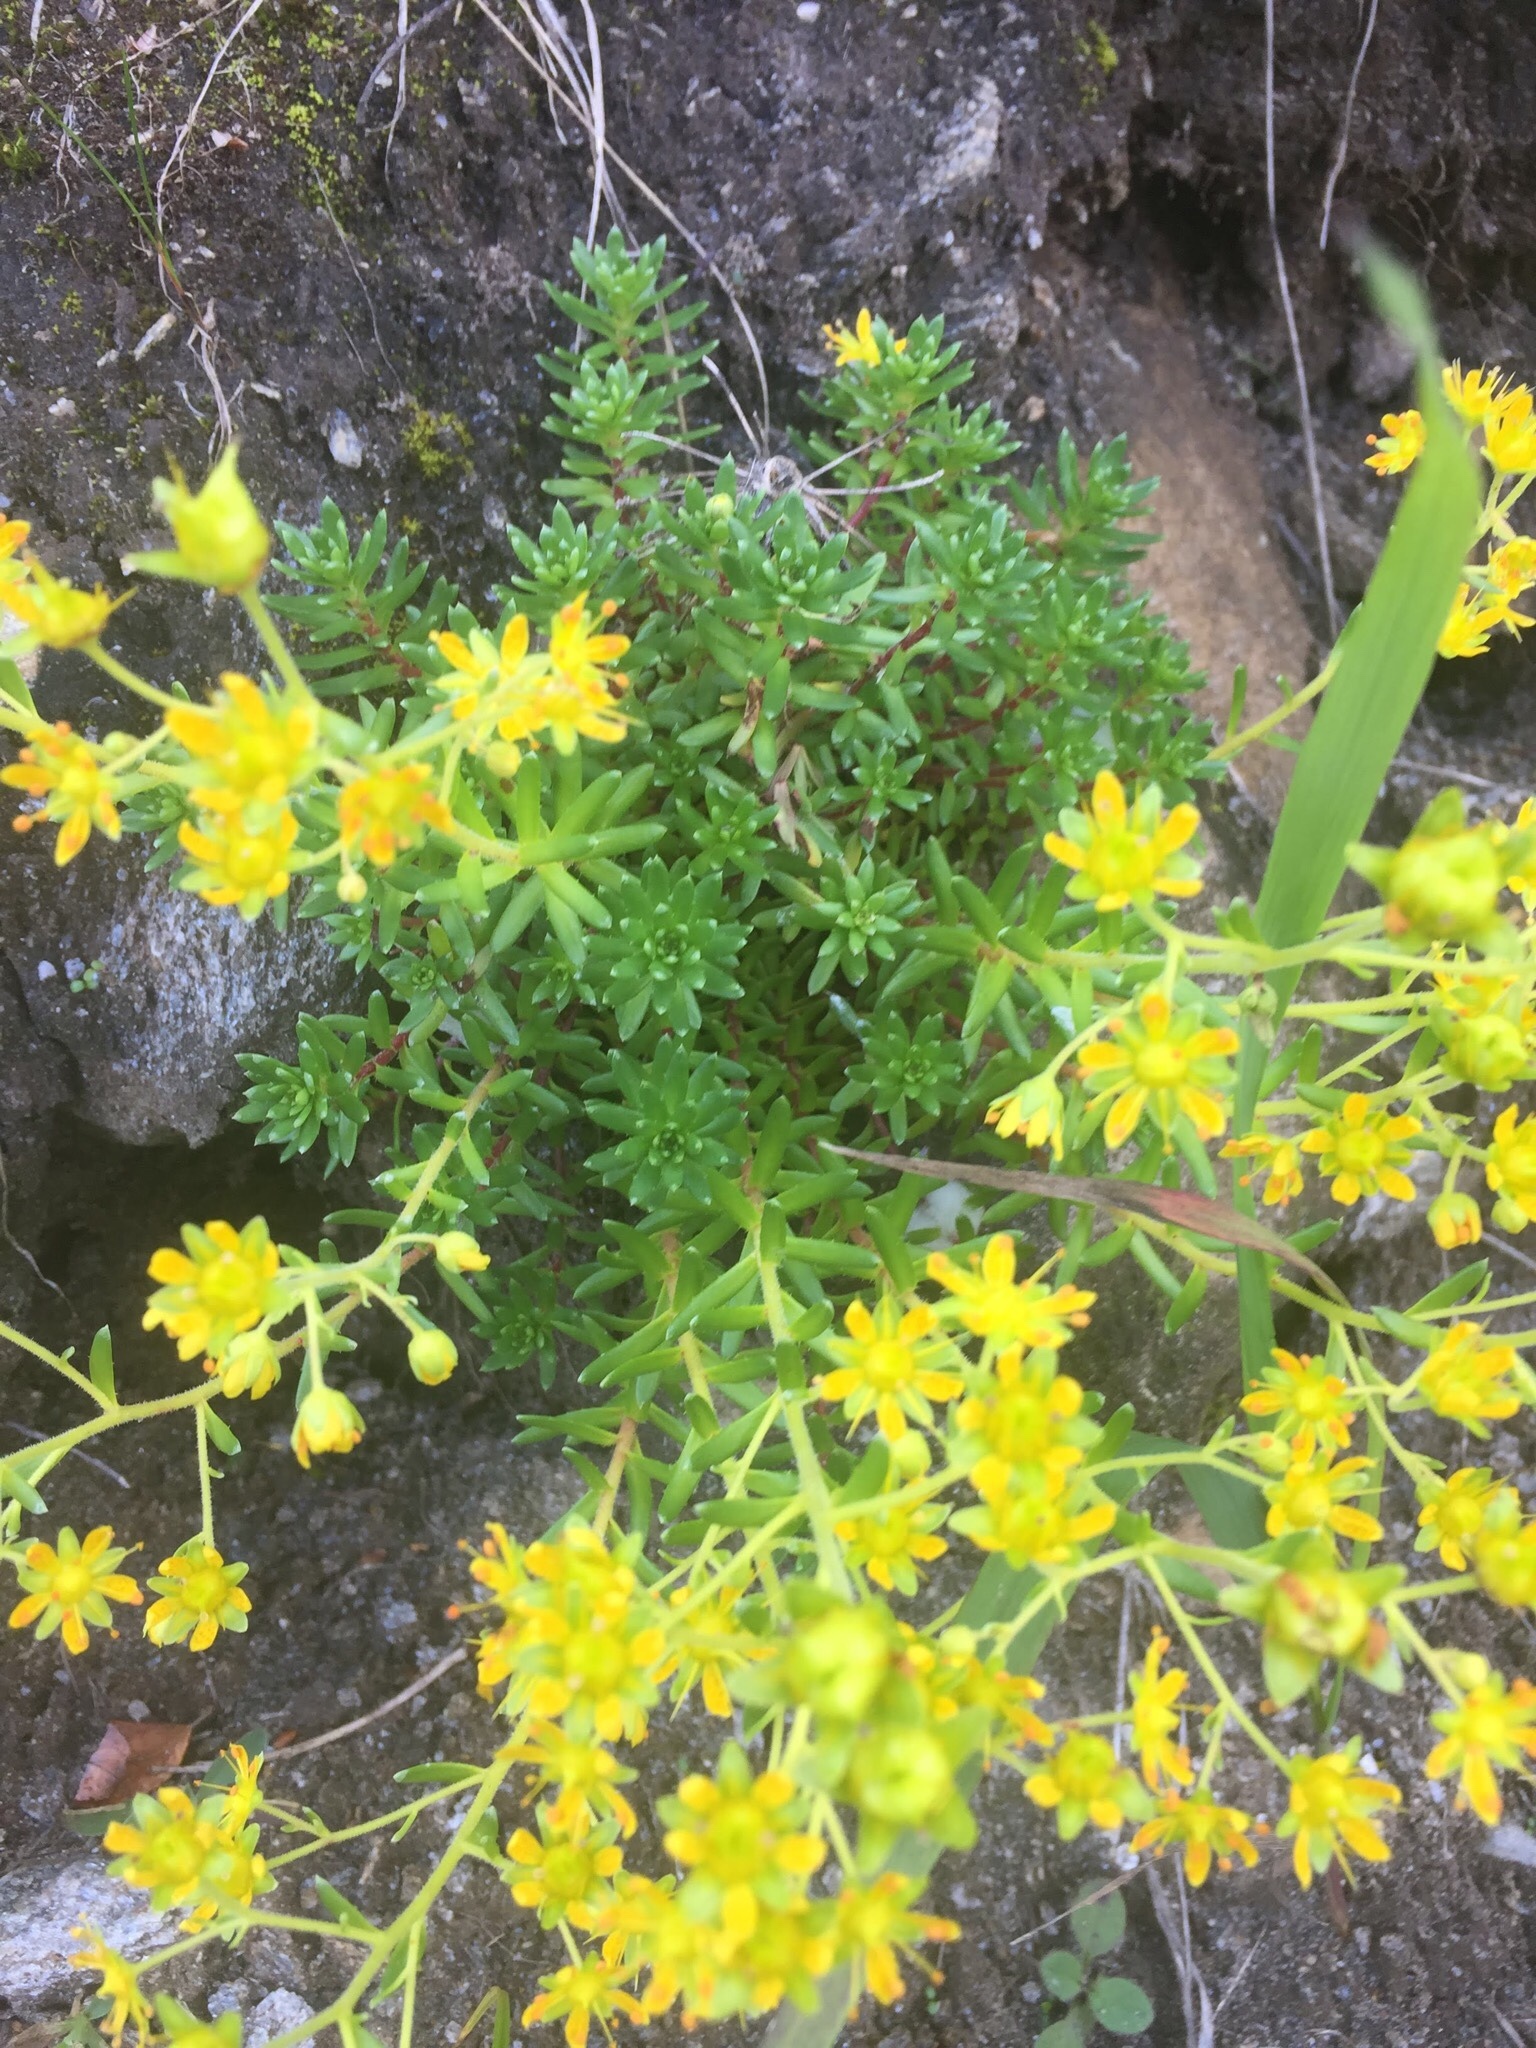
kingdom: Plantae
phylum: Tracheophyta
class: Magnoliopsida
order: Saxifragales
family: Saxifragaceae
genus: Saxifraga
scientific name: Saxifraga aizoides
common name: Yellow mountain saxifrage
